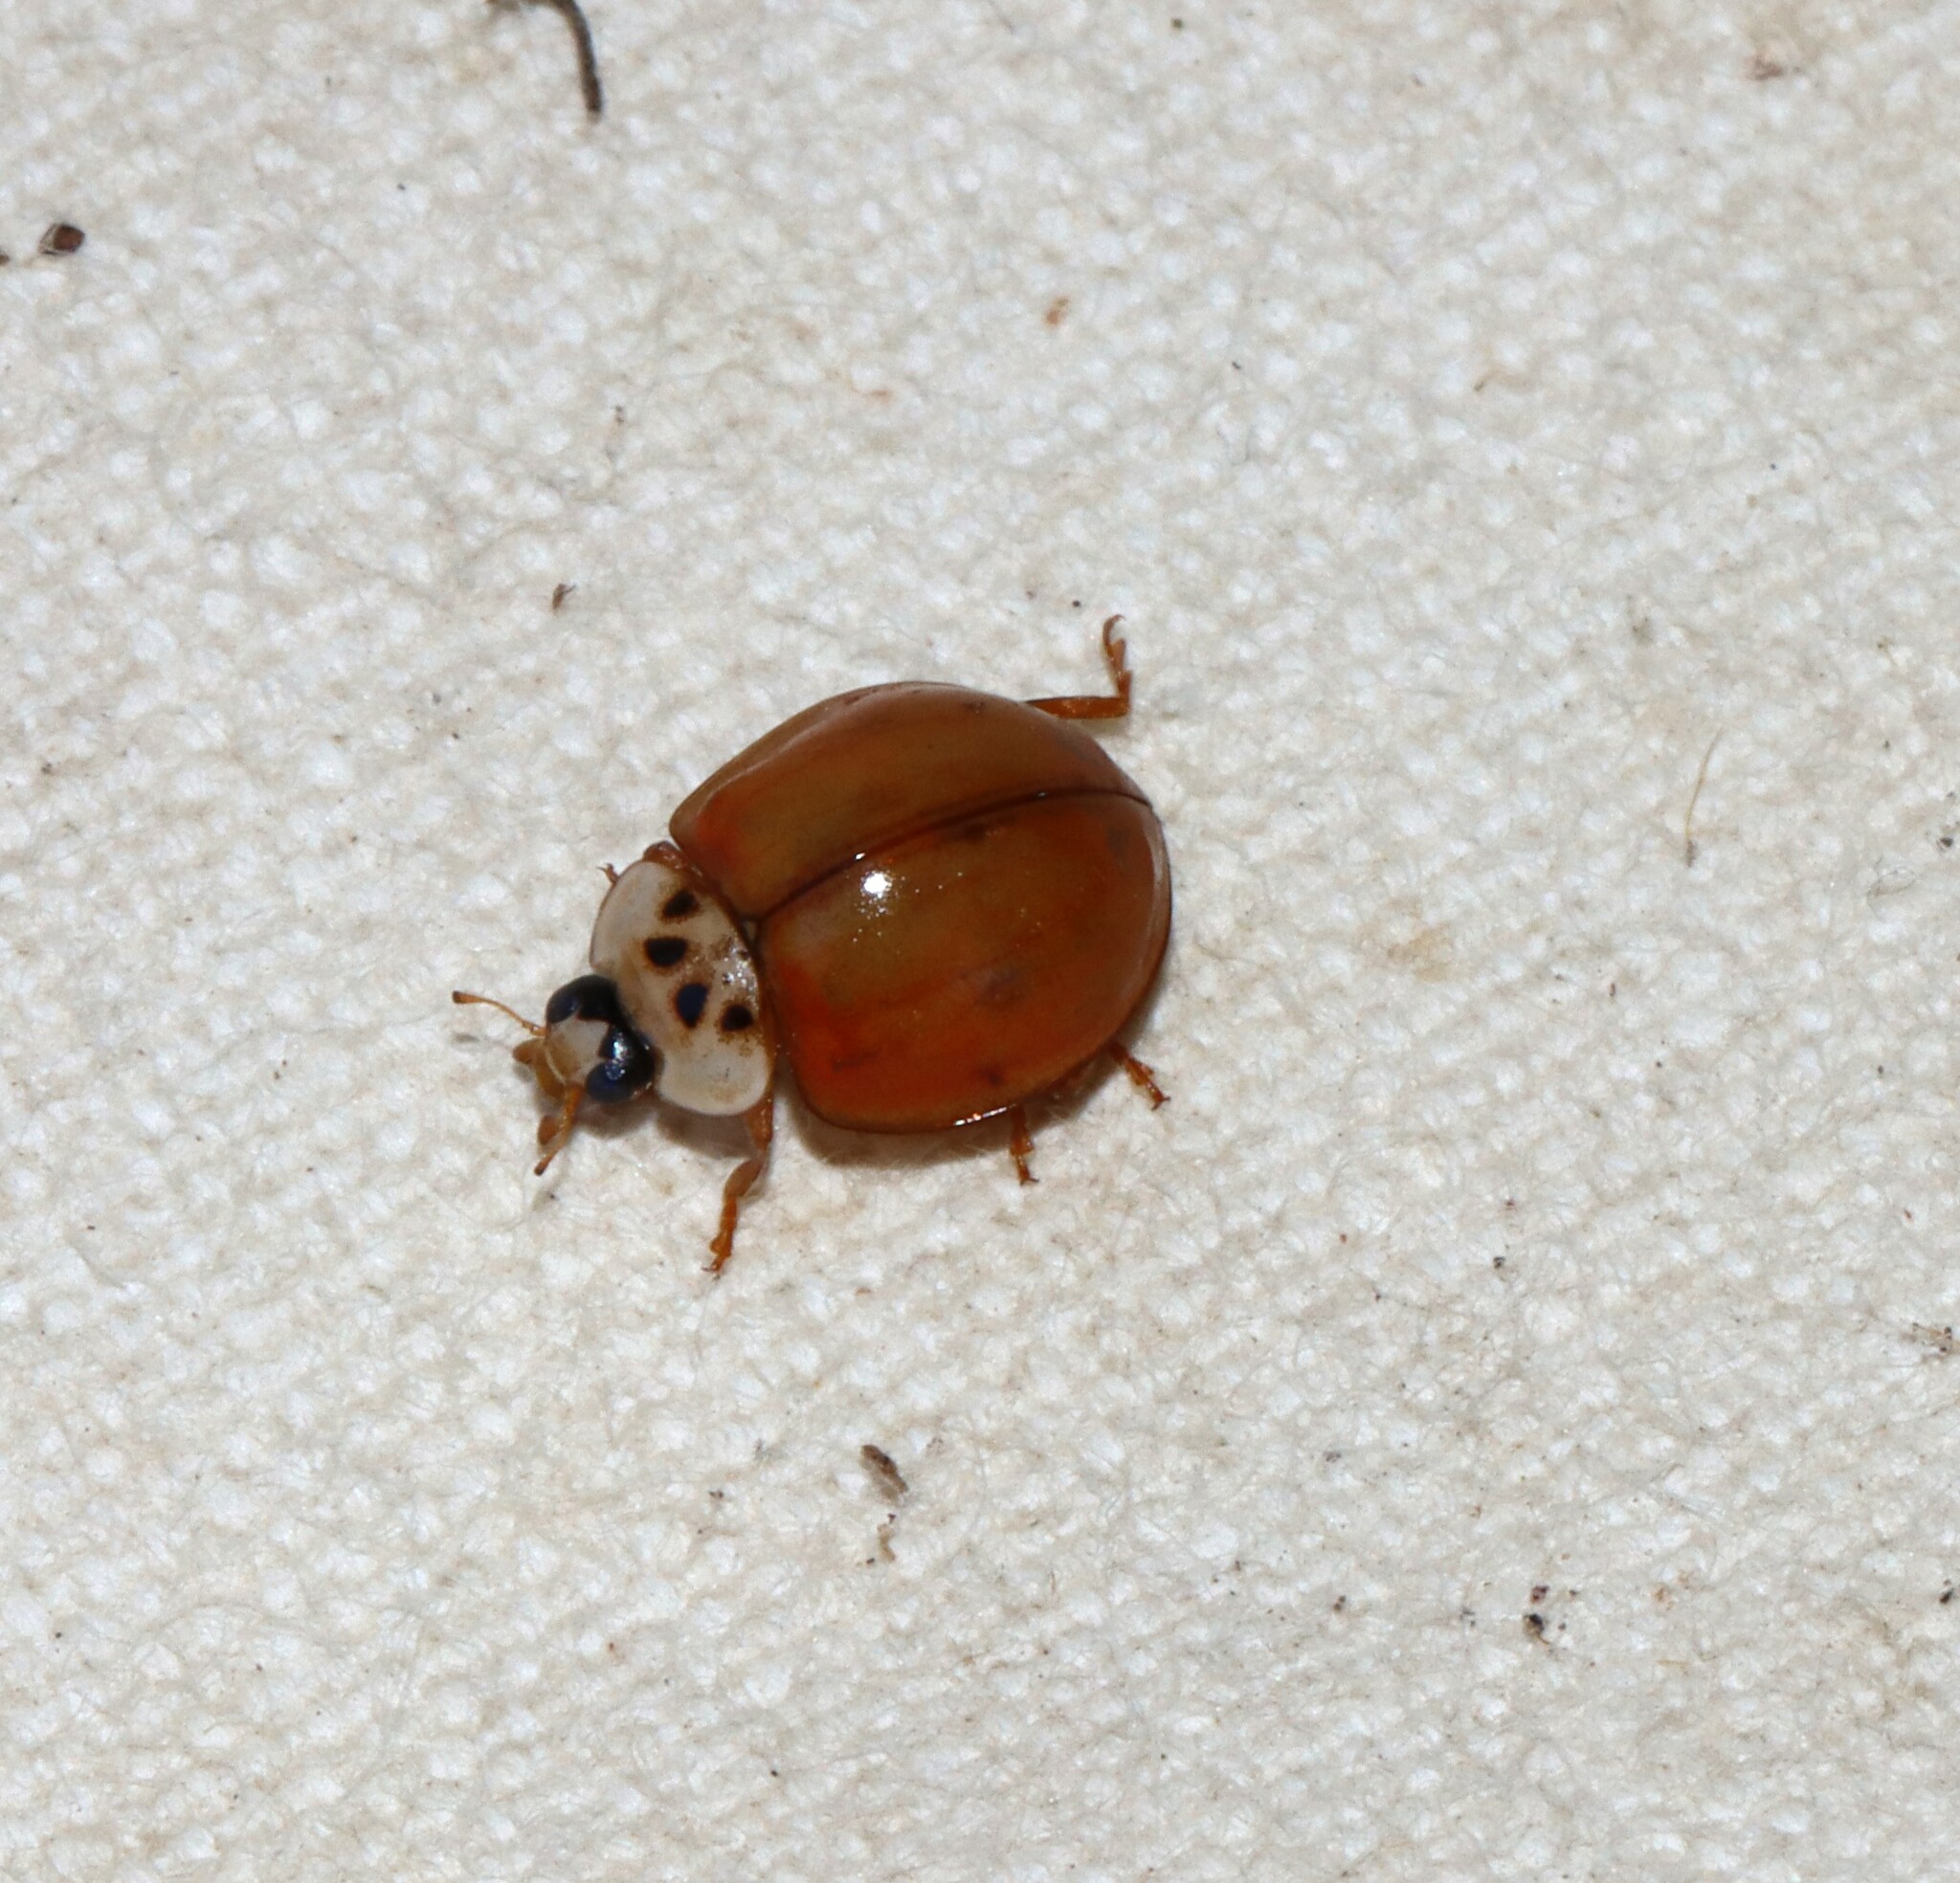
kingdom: Animalia
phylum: Arthropoda
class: Insecta
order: Coleoptera
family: Coccinellidae
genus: Harmonia
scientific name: Harmonia axyridis
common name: Harlequin ladybird
